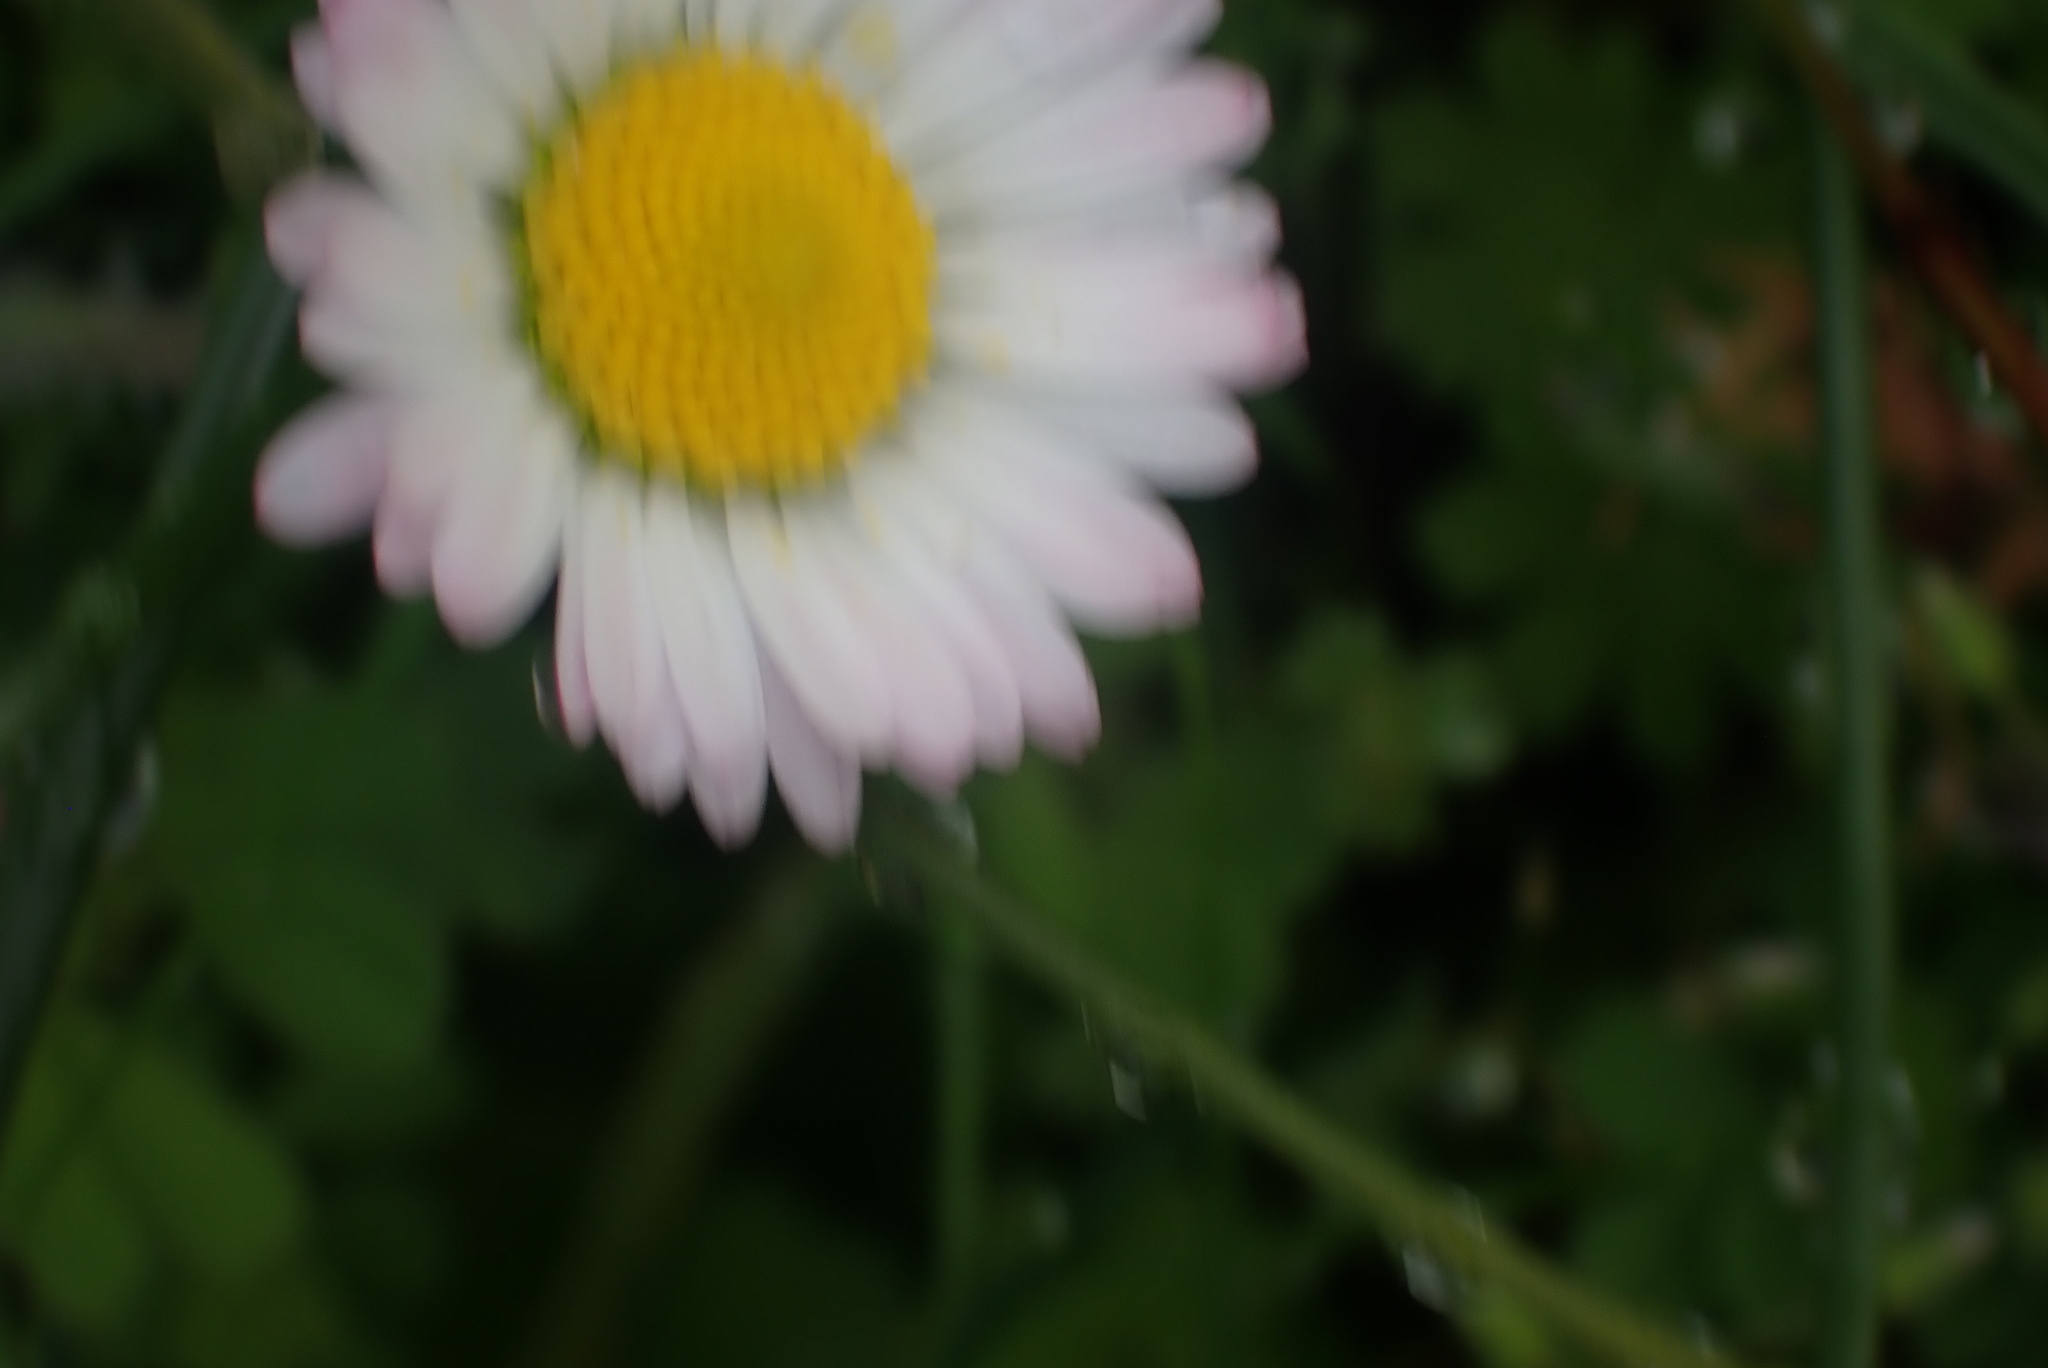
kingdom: Plantae
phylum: Tracheophyta
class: Magnoliopsida
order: Asterales
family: Asteraceae
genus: Bellis
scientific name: Bellis perennis
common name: Lawndaisy
